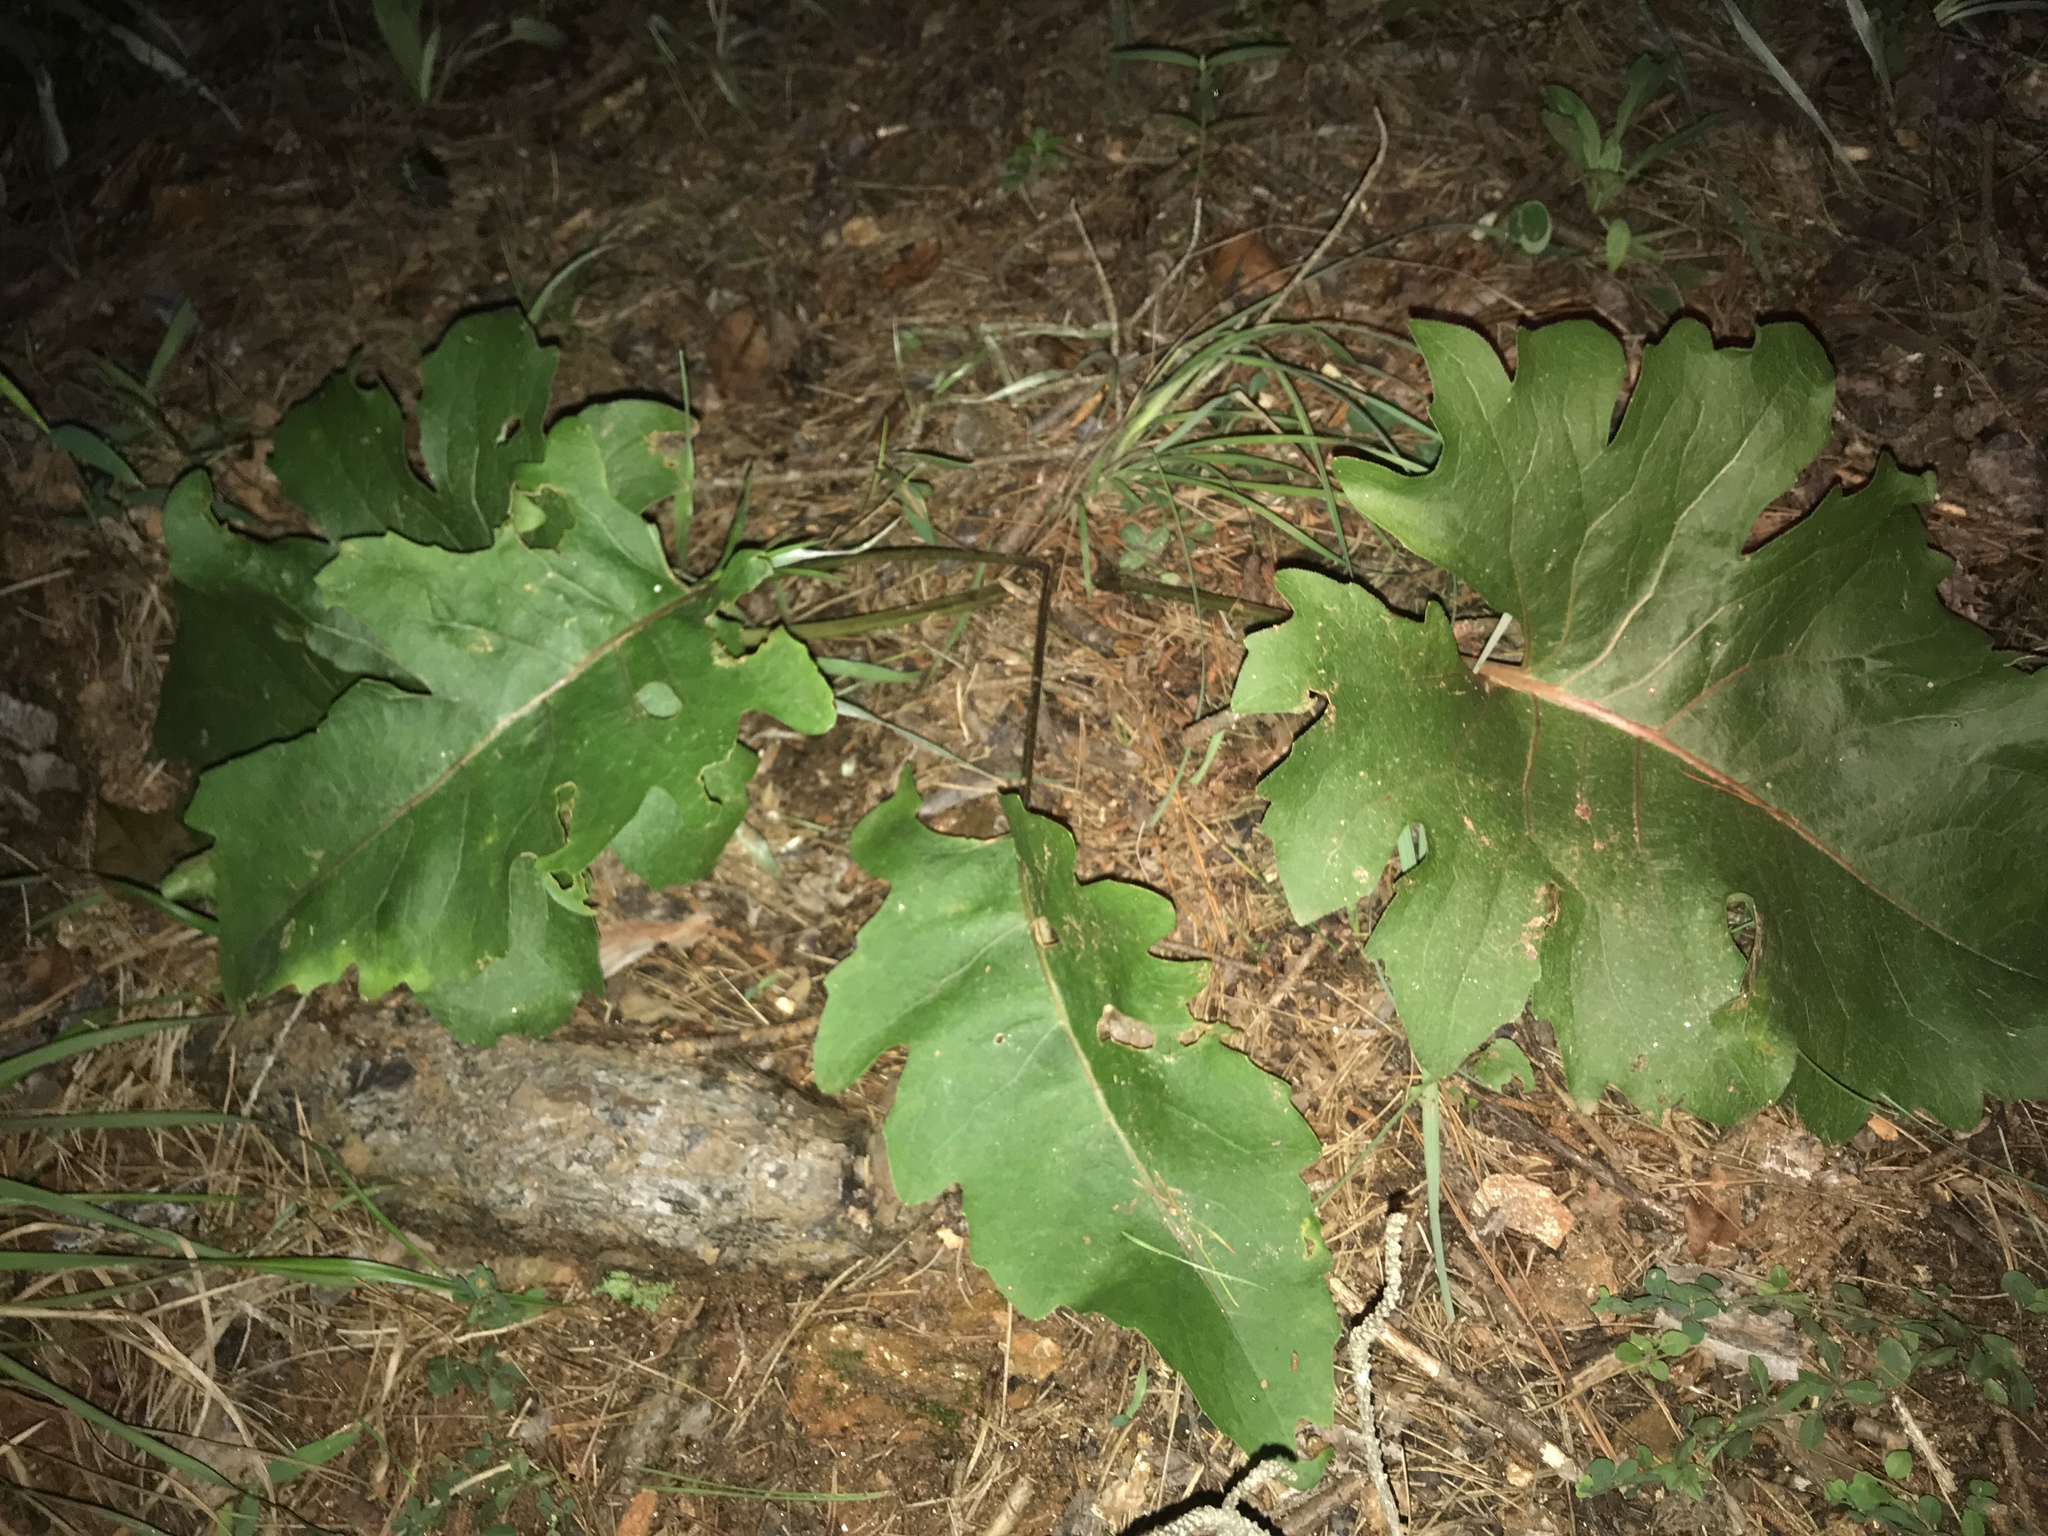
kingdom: Plantae
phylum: Tracheophyta
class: Magnoliopsida
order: Asterales
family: Asteraceae
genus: Silphium
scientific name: Silphium compositum
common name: Lesser basal-leaf rosinweed
